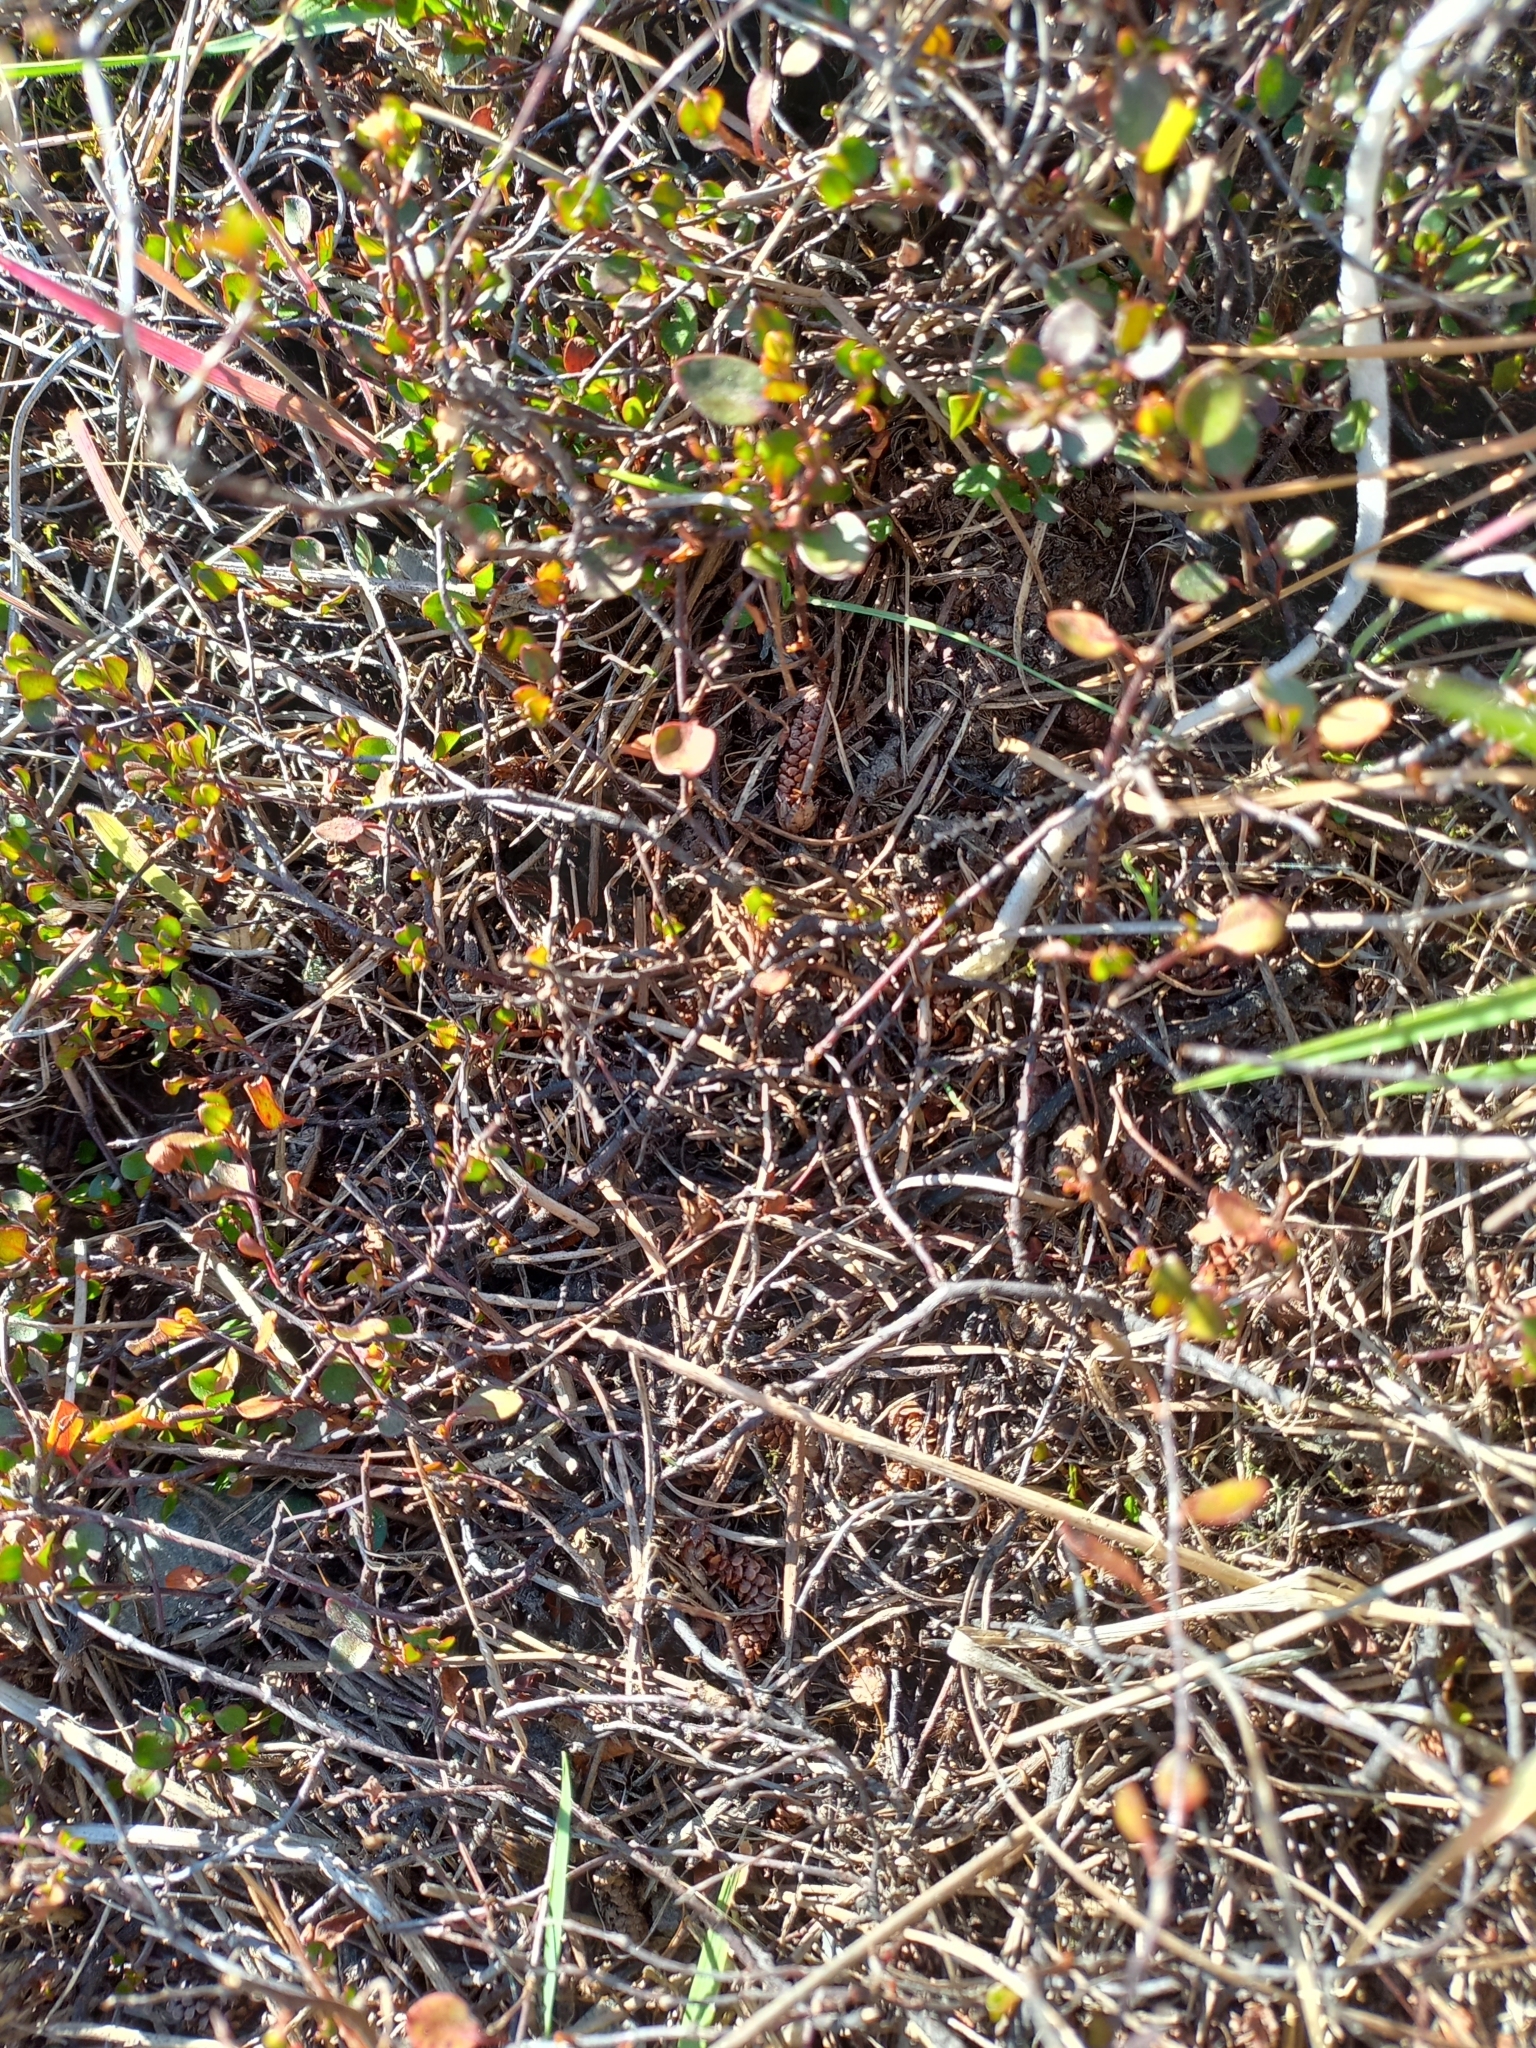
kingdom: Plantae
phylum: Tracheophyta
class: Magnoliopsida
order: Caryophyllales
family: Polygonaceae
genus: Muehlenbeckia
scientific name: Muehlenbeckia axillaris
